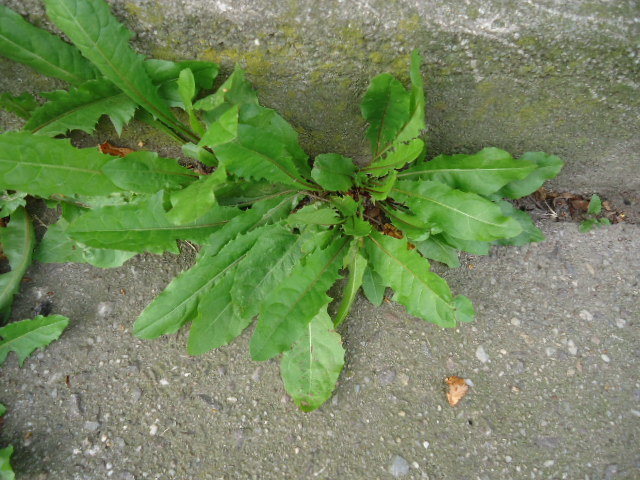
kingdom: Plantae
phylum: Tracheophyta
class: Magnoliopsida
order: Asterales
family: Asteraceae
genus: Taraxacum
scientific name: Taraxacum
